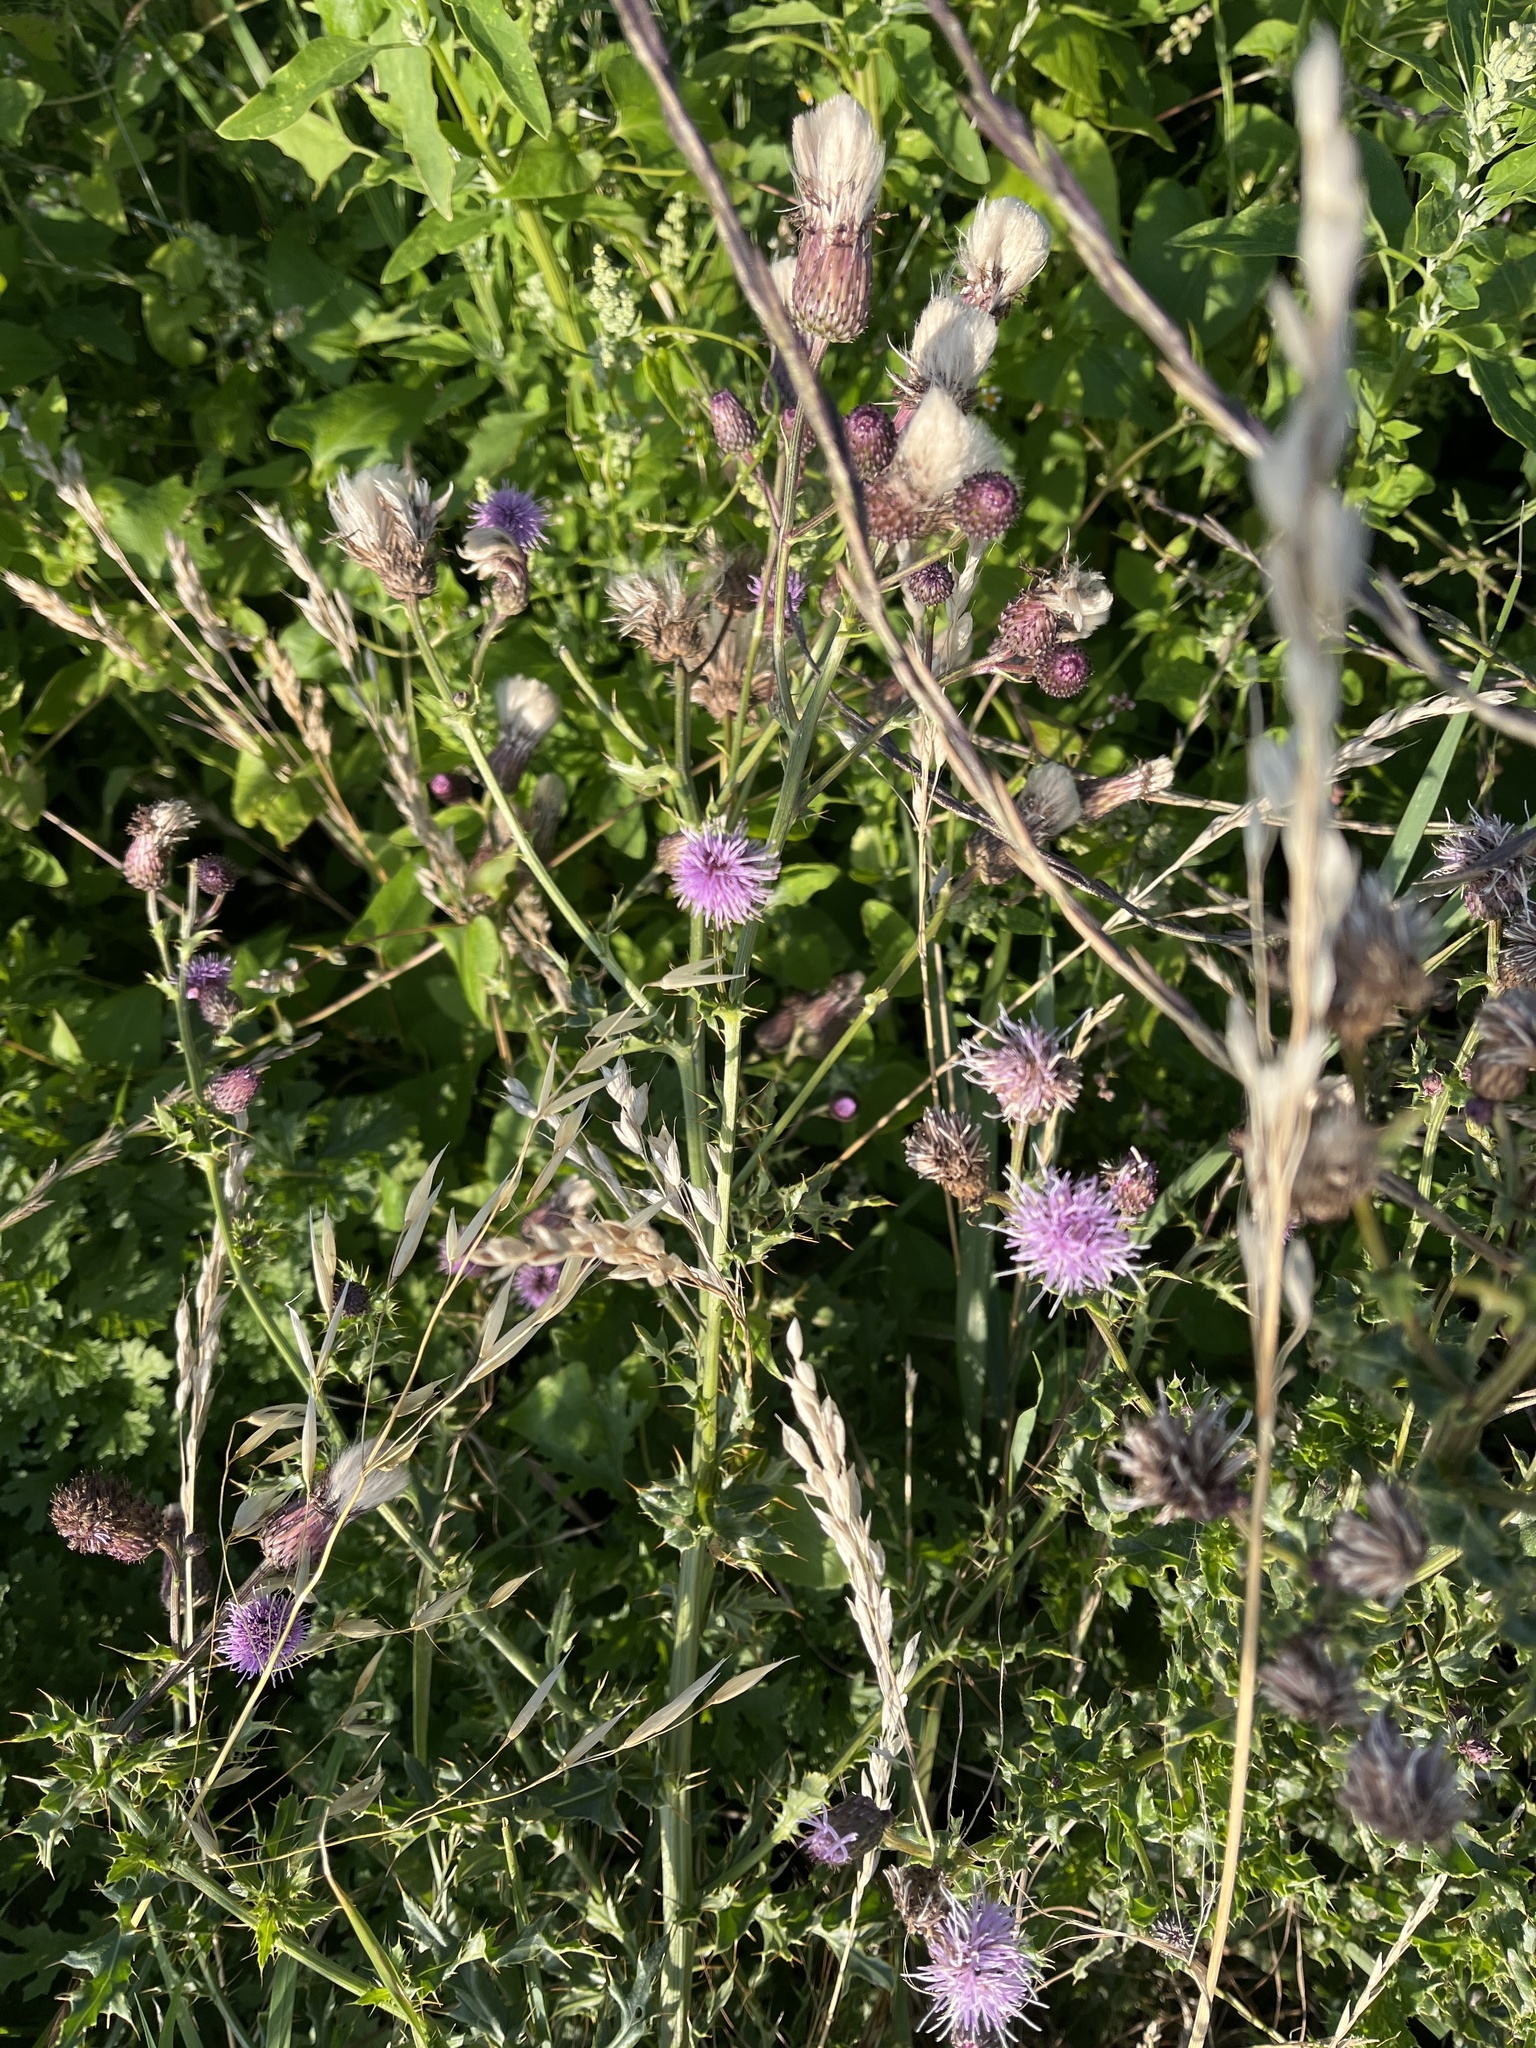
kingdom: Plantae
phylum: Tracheophyta
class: Magnoliopsida
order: Asterales
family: Asteraceae
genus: Cirsium
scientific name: Cirsium arvense
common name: Creeping thistle
